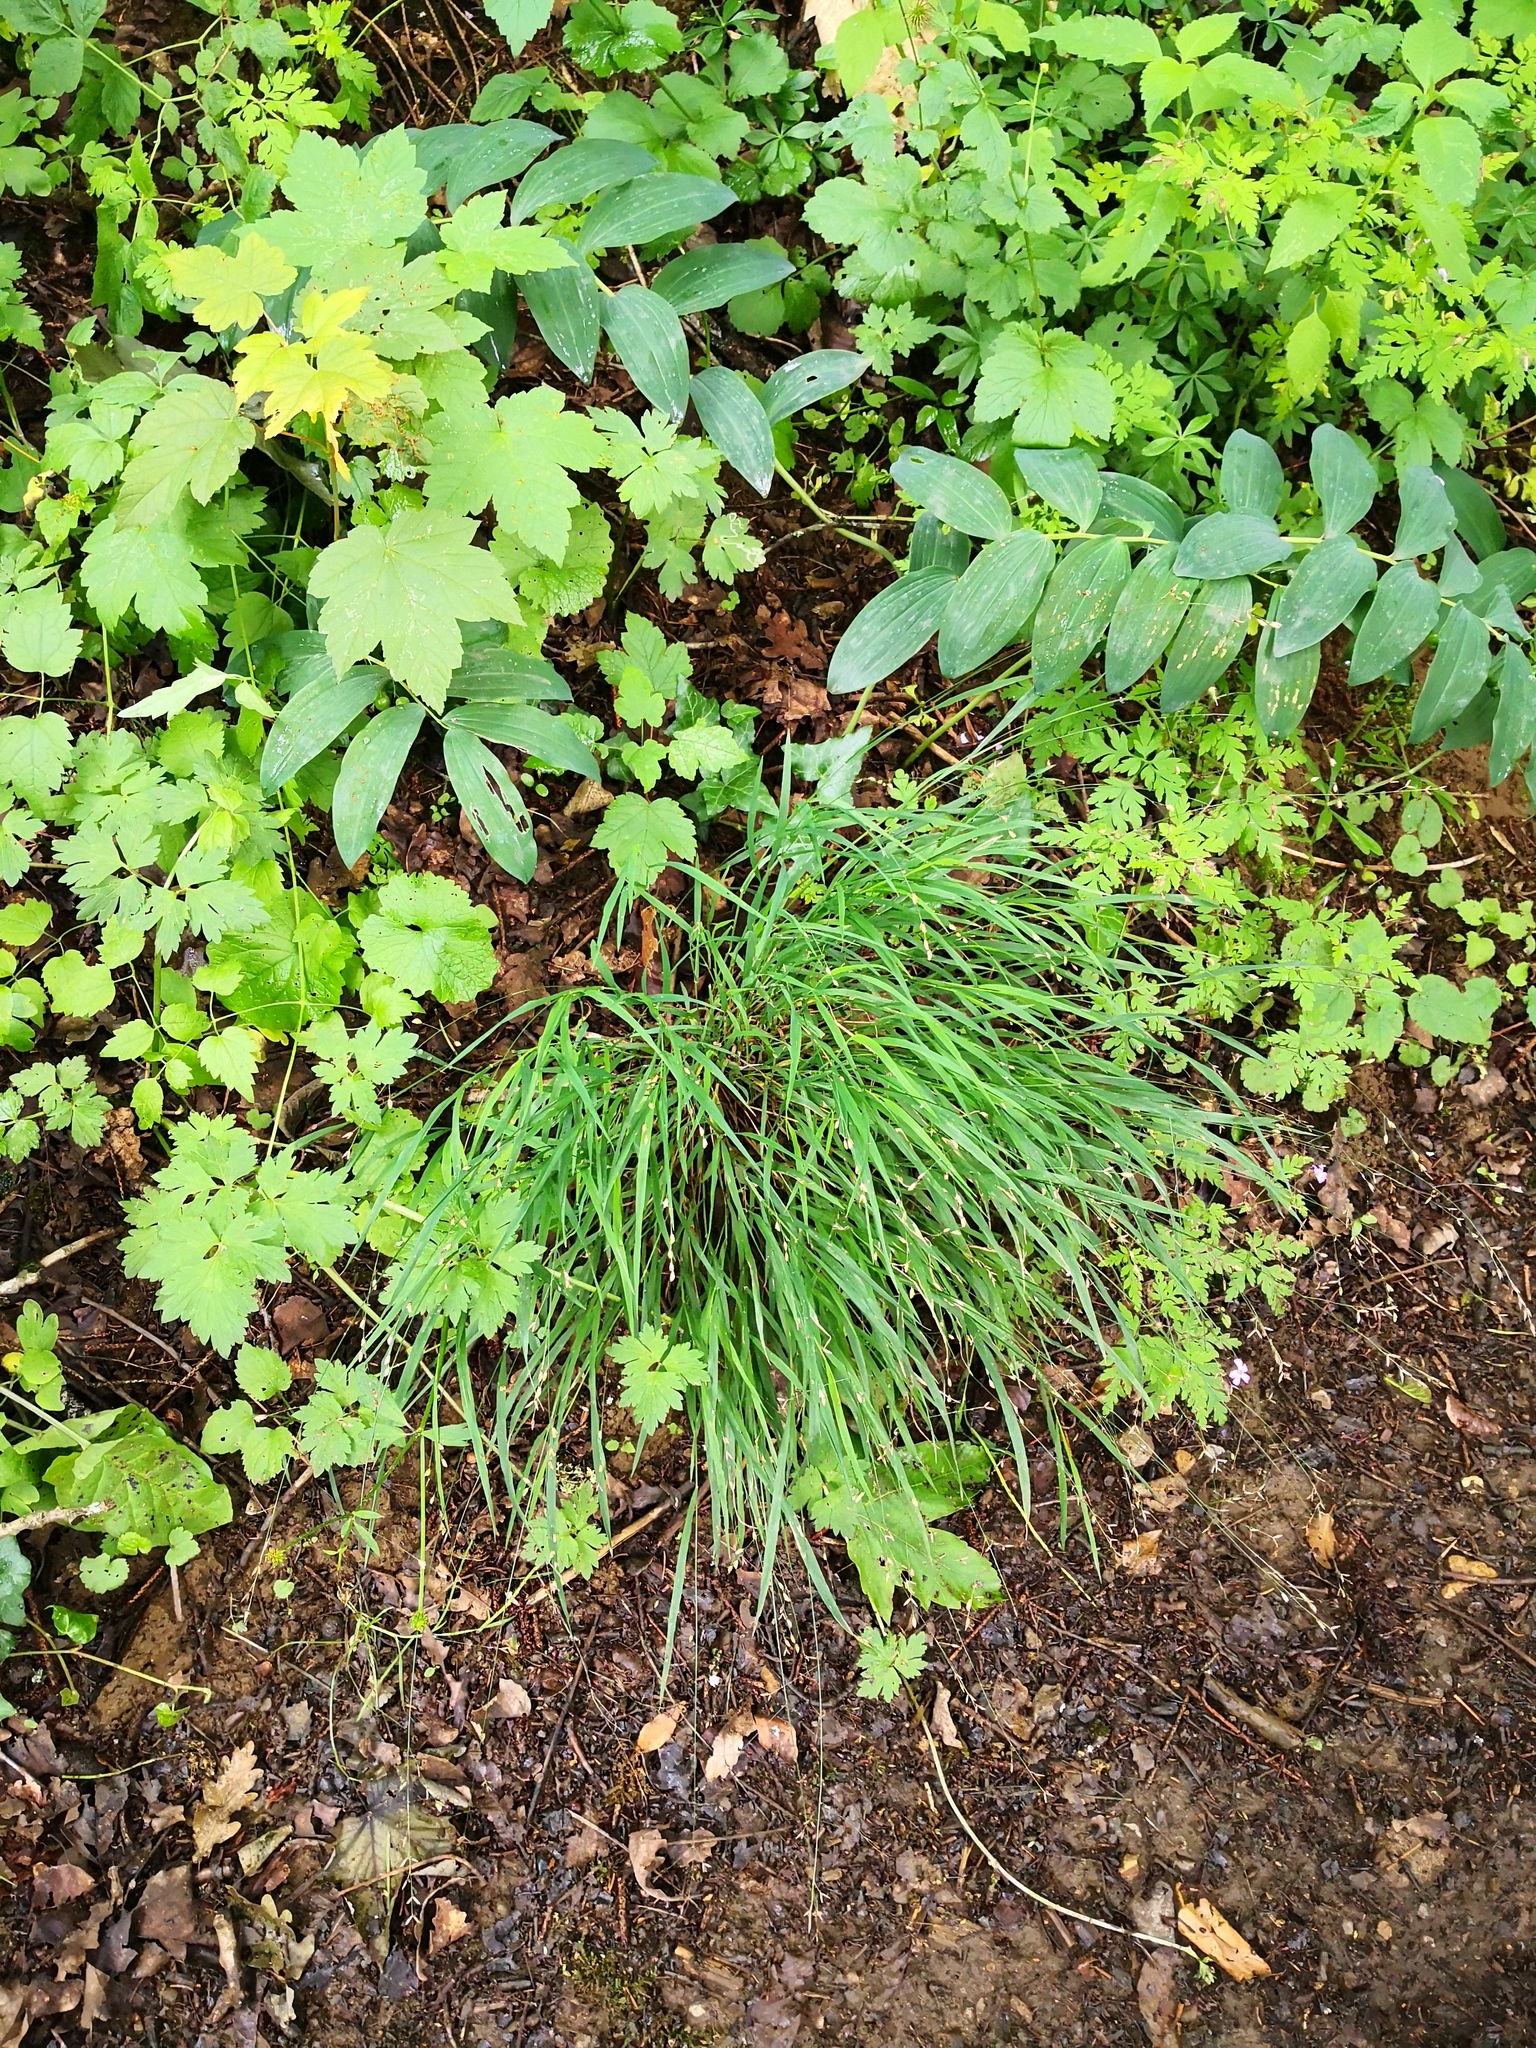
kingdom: Plantae
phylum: Tracheophyta
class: Liliopsida
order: Poales
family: Poaceae
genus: Melica
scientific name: Melica uniflora
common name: Wood melick
